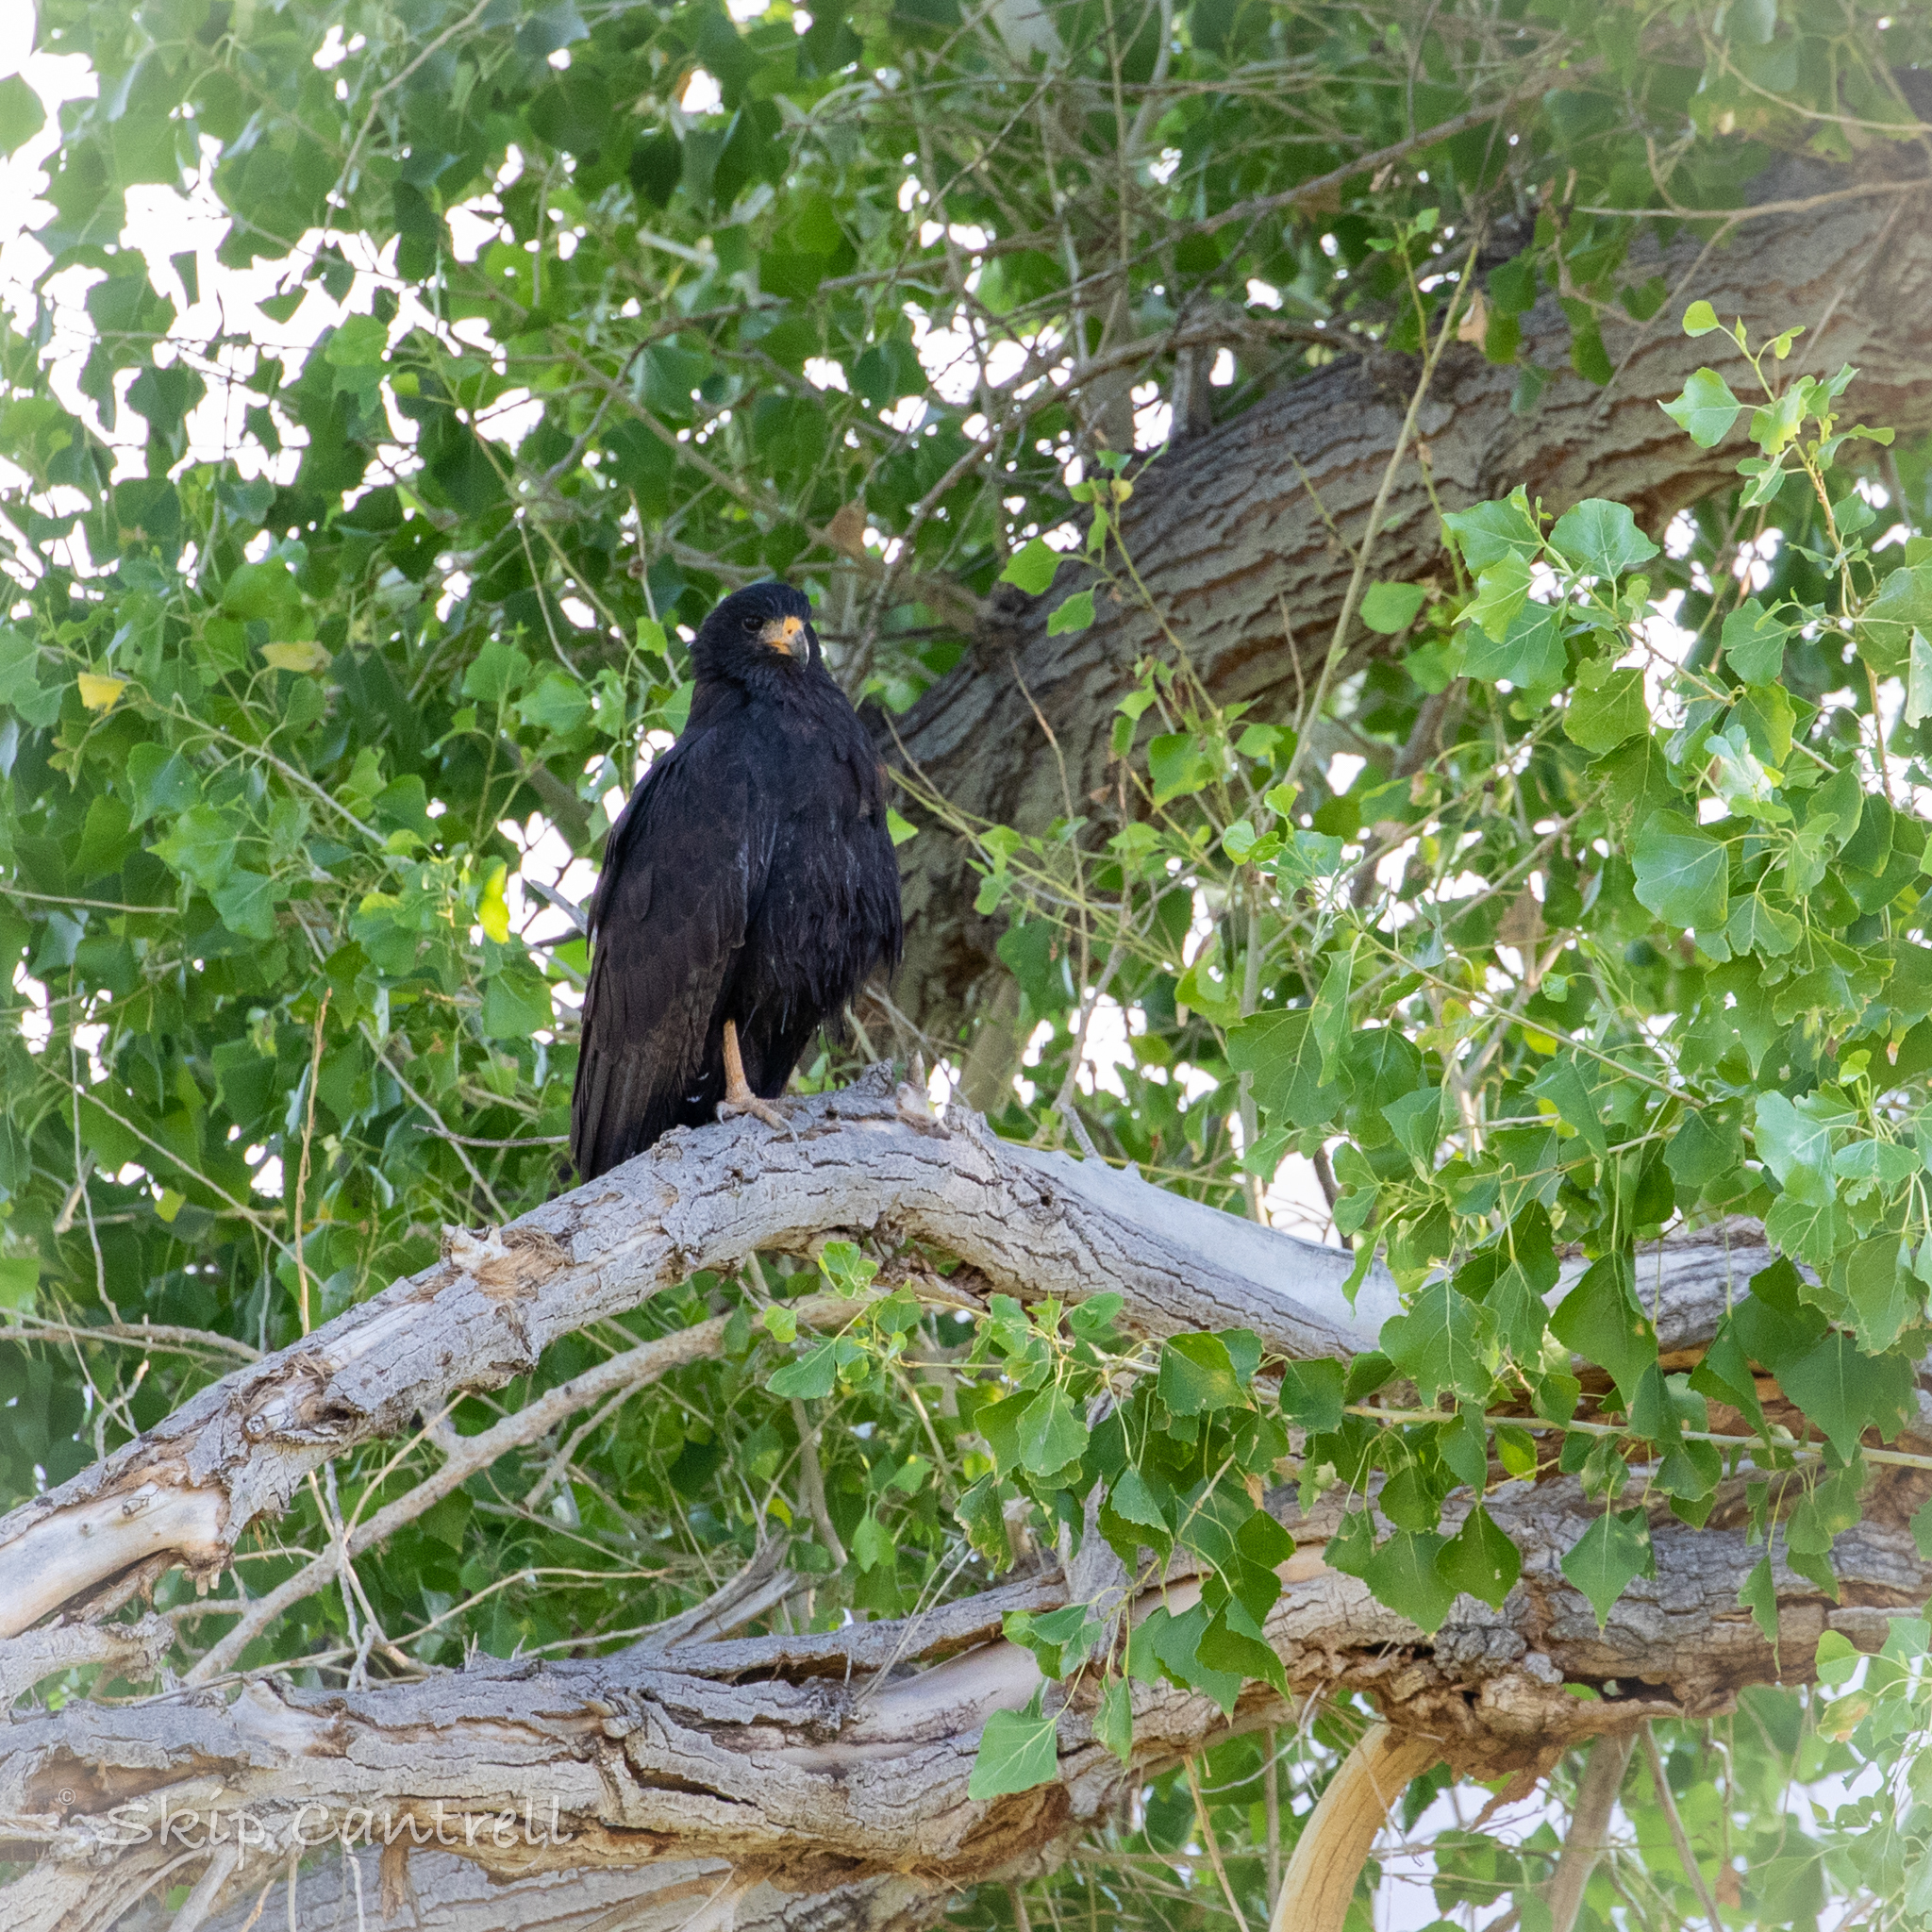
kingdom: Animalia
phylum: Chordata
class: Aves
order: Accipitriformes
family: Accipitridae
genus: Buteogallus
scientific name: Buteogallus anthracinus
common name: Common black hawk
